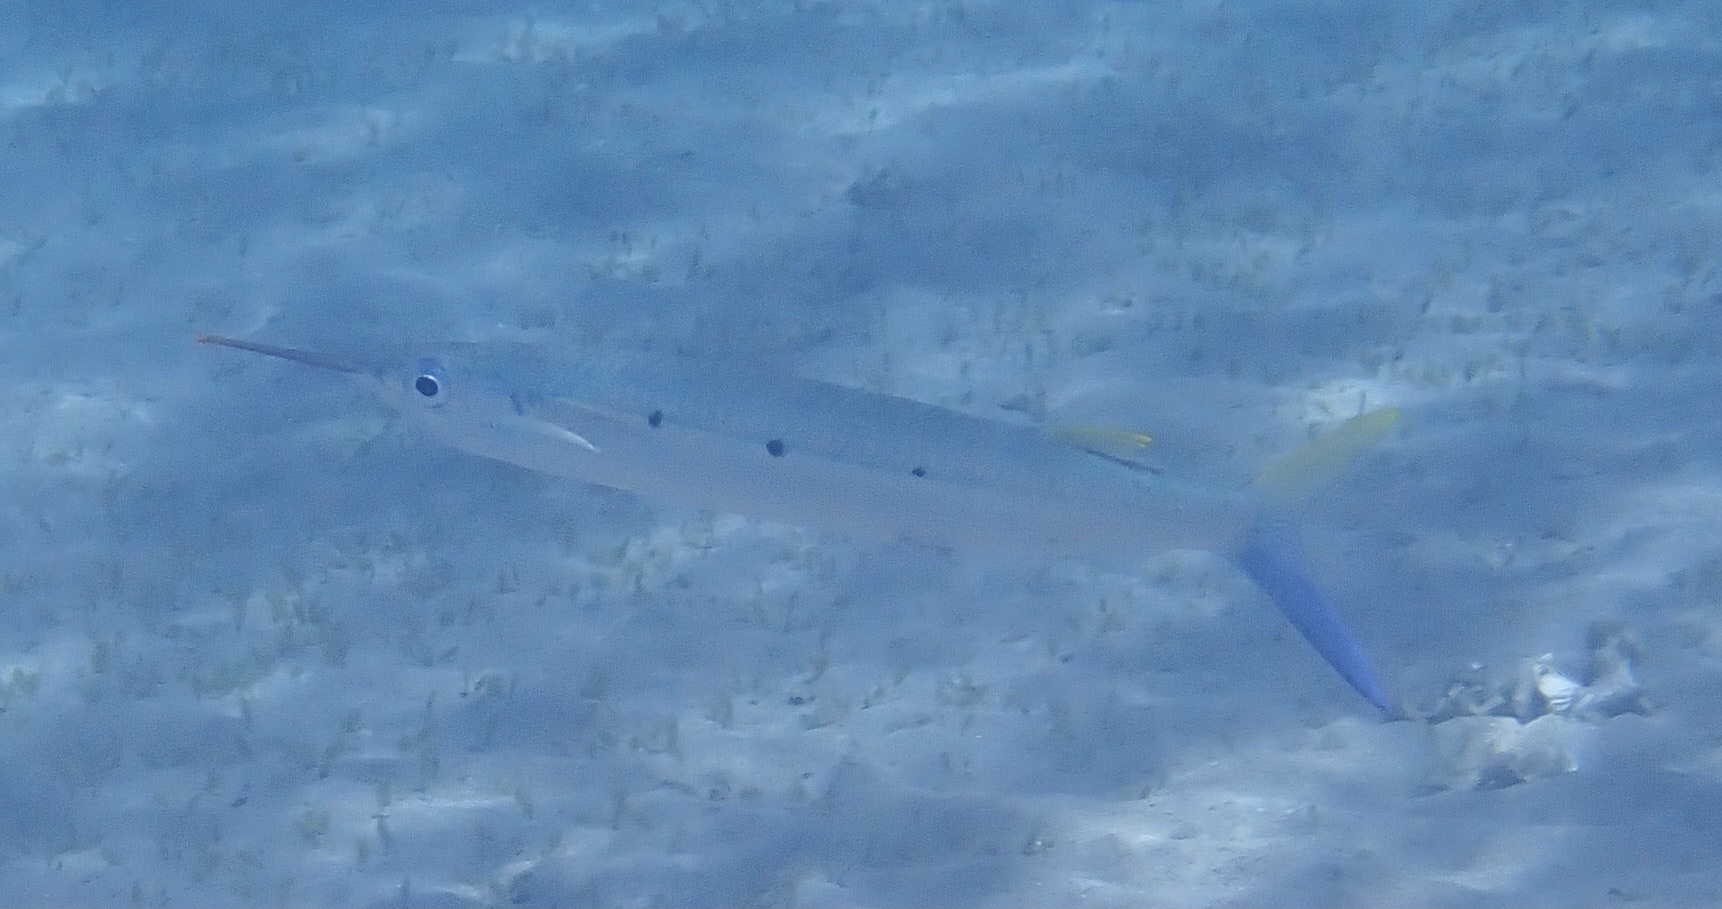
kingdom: Animalia
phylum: Chordata
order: Beloniformes
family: Hemiramphidae
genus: Hemiramphus
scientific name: Hemiramphus far
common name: Black-barred halfbeak
